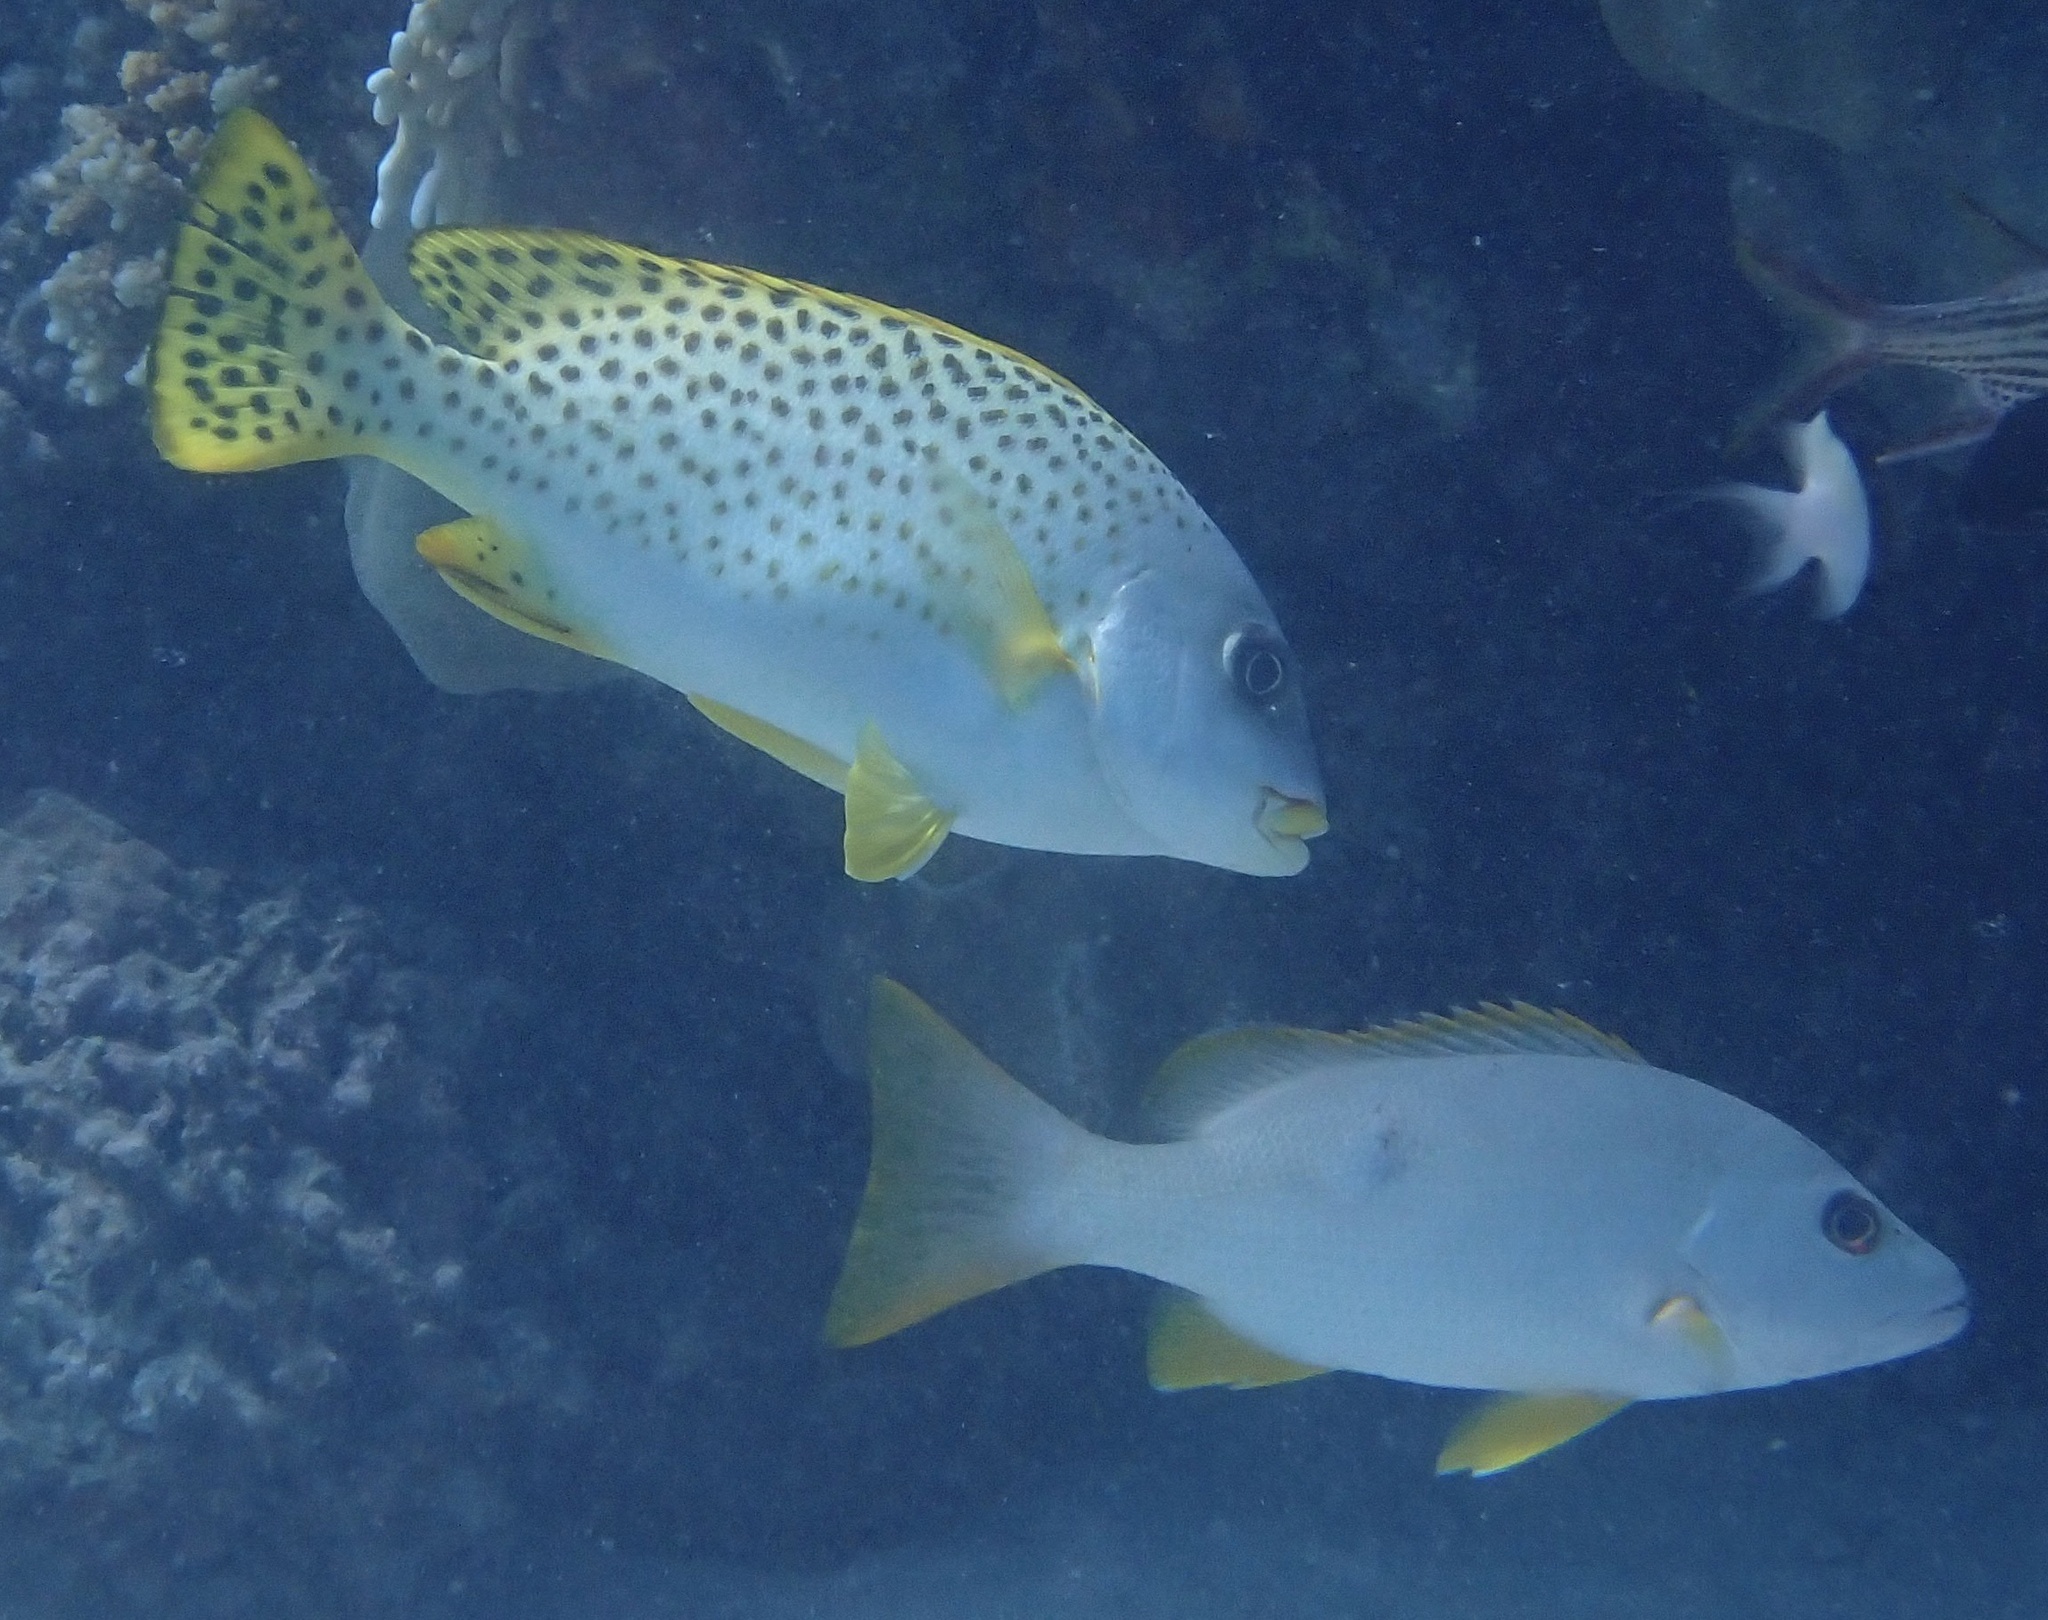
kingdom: Animalia
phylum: Chordata
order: Perciformes
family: Haemulidae
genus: Plectorhinchus
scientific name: Plectorhinchus gaterinus
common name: Blackspotted rubberlip
